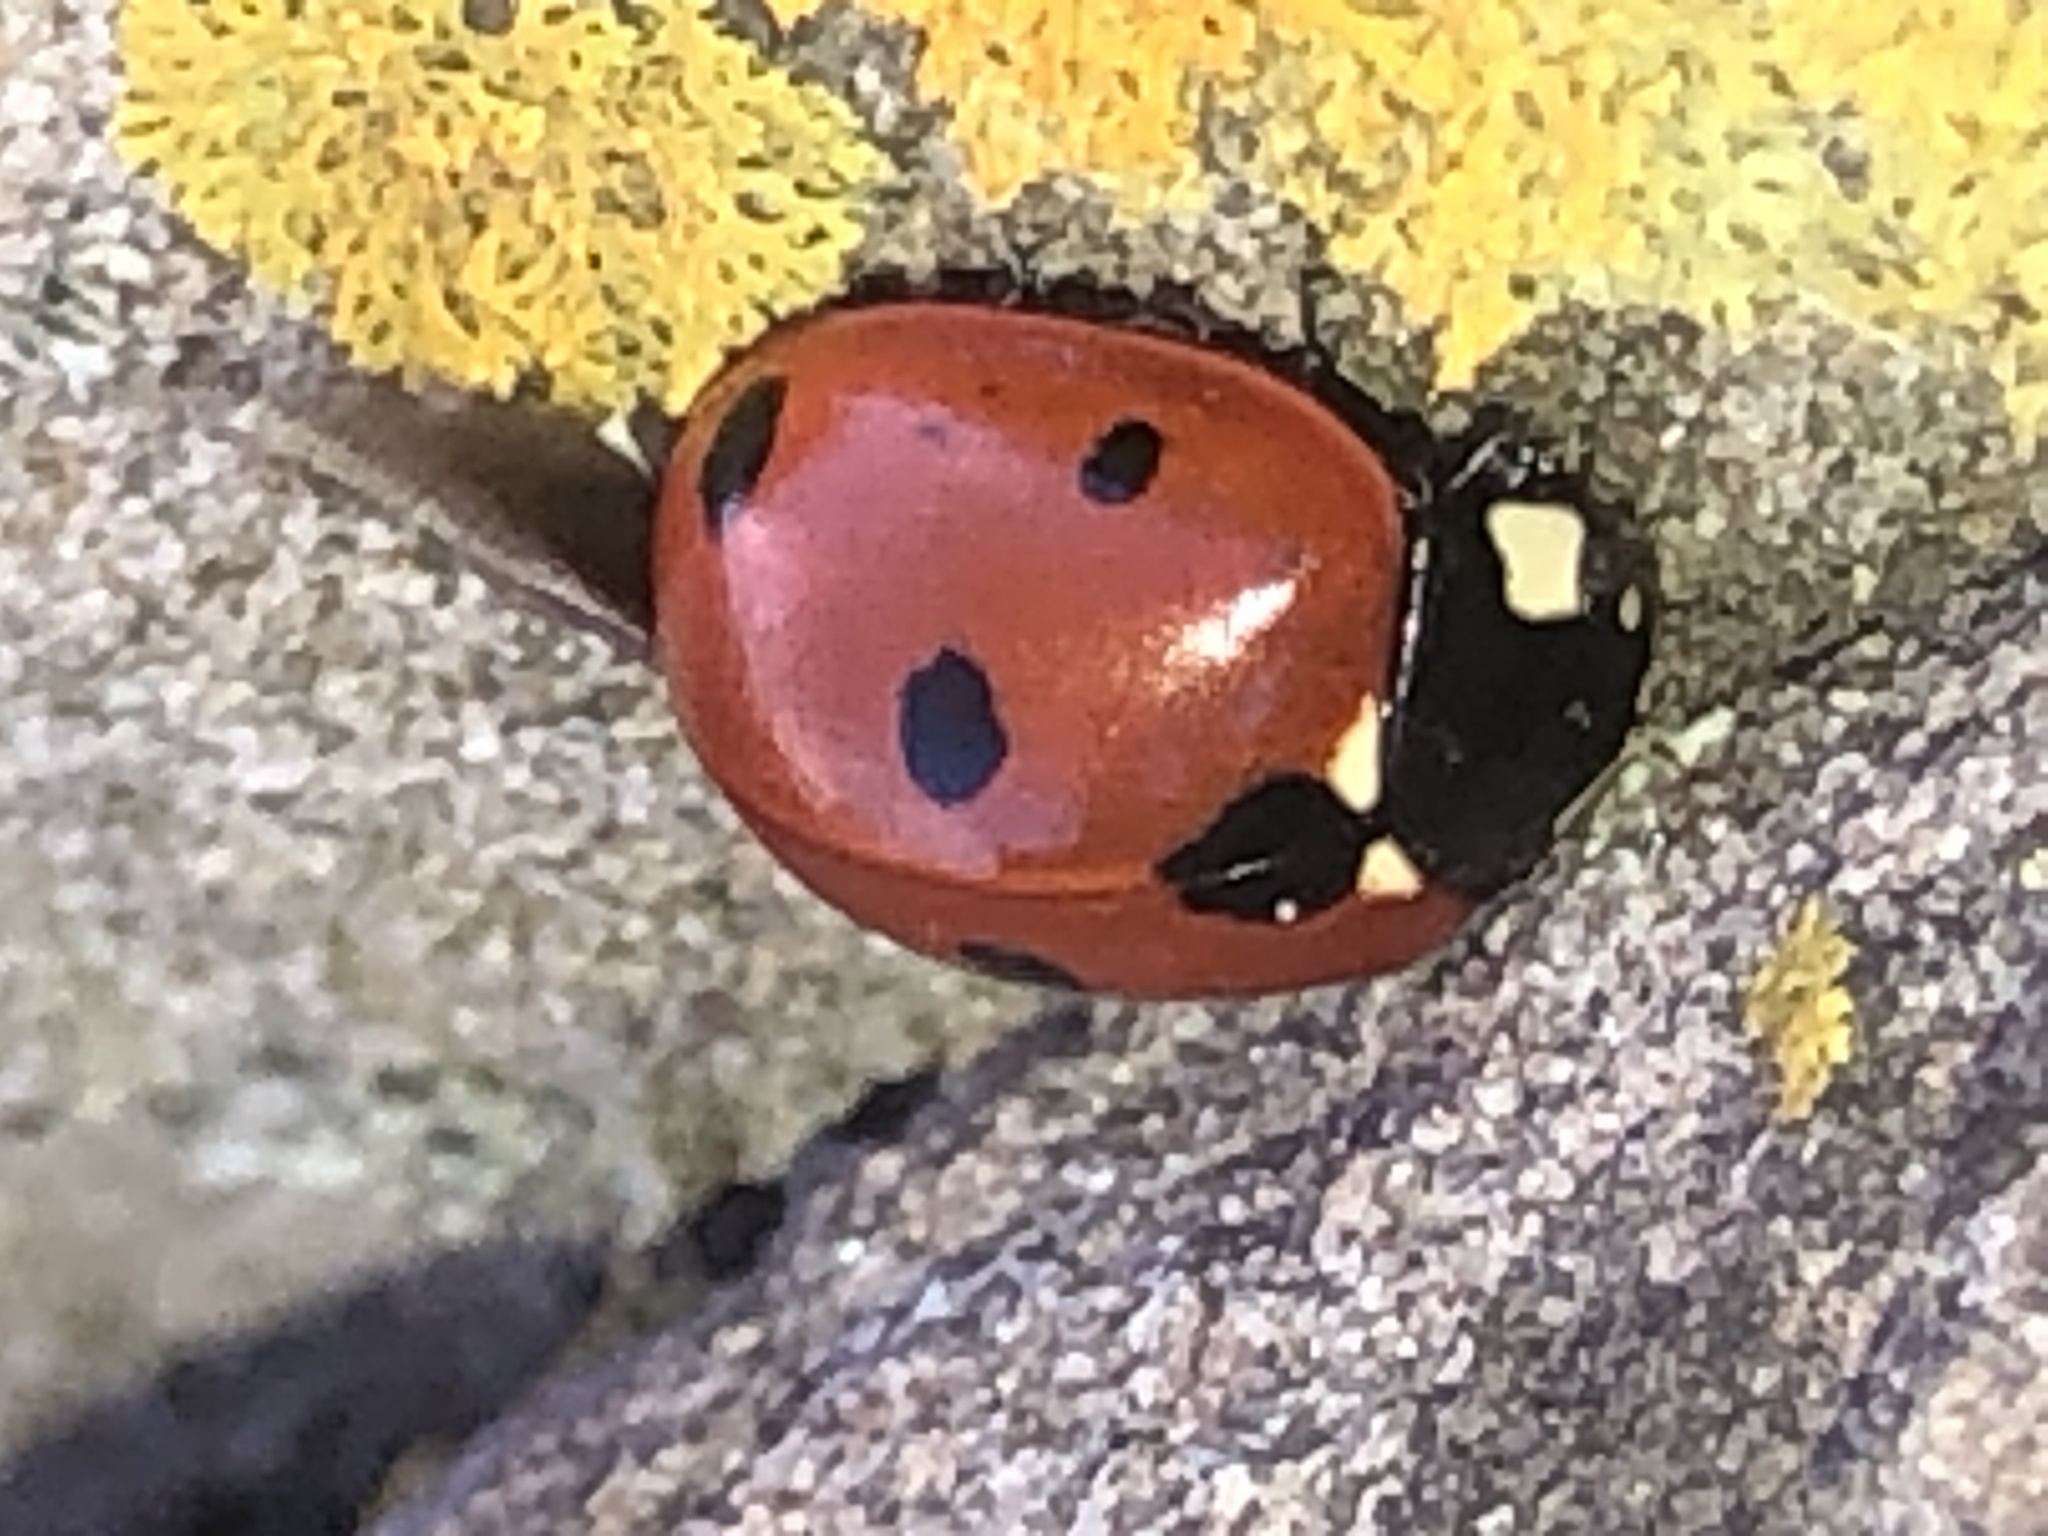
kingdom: Animalia
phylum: Arthropoda
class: Insecta
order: Coleoptera
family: Coccinellidae
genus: Coccinella
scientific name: Coccinella septempunctata
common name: Sevenspotted lady beetle
